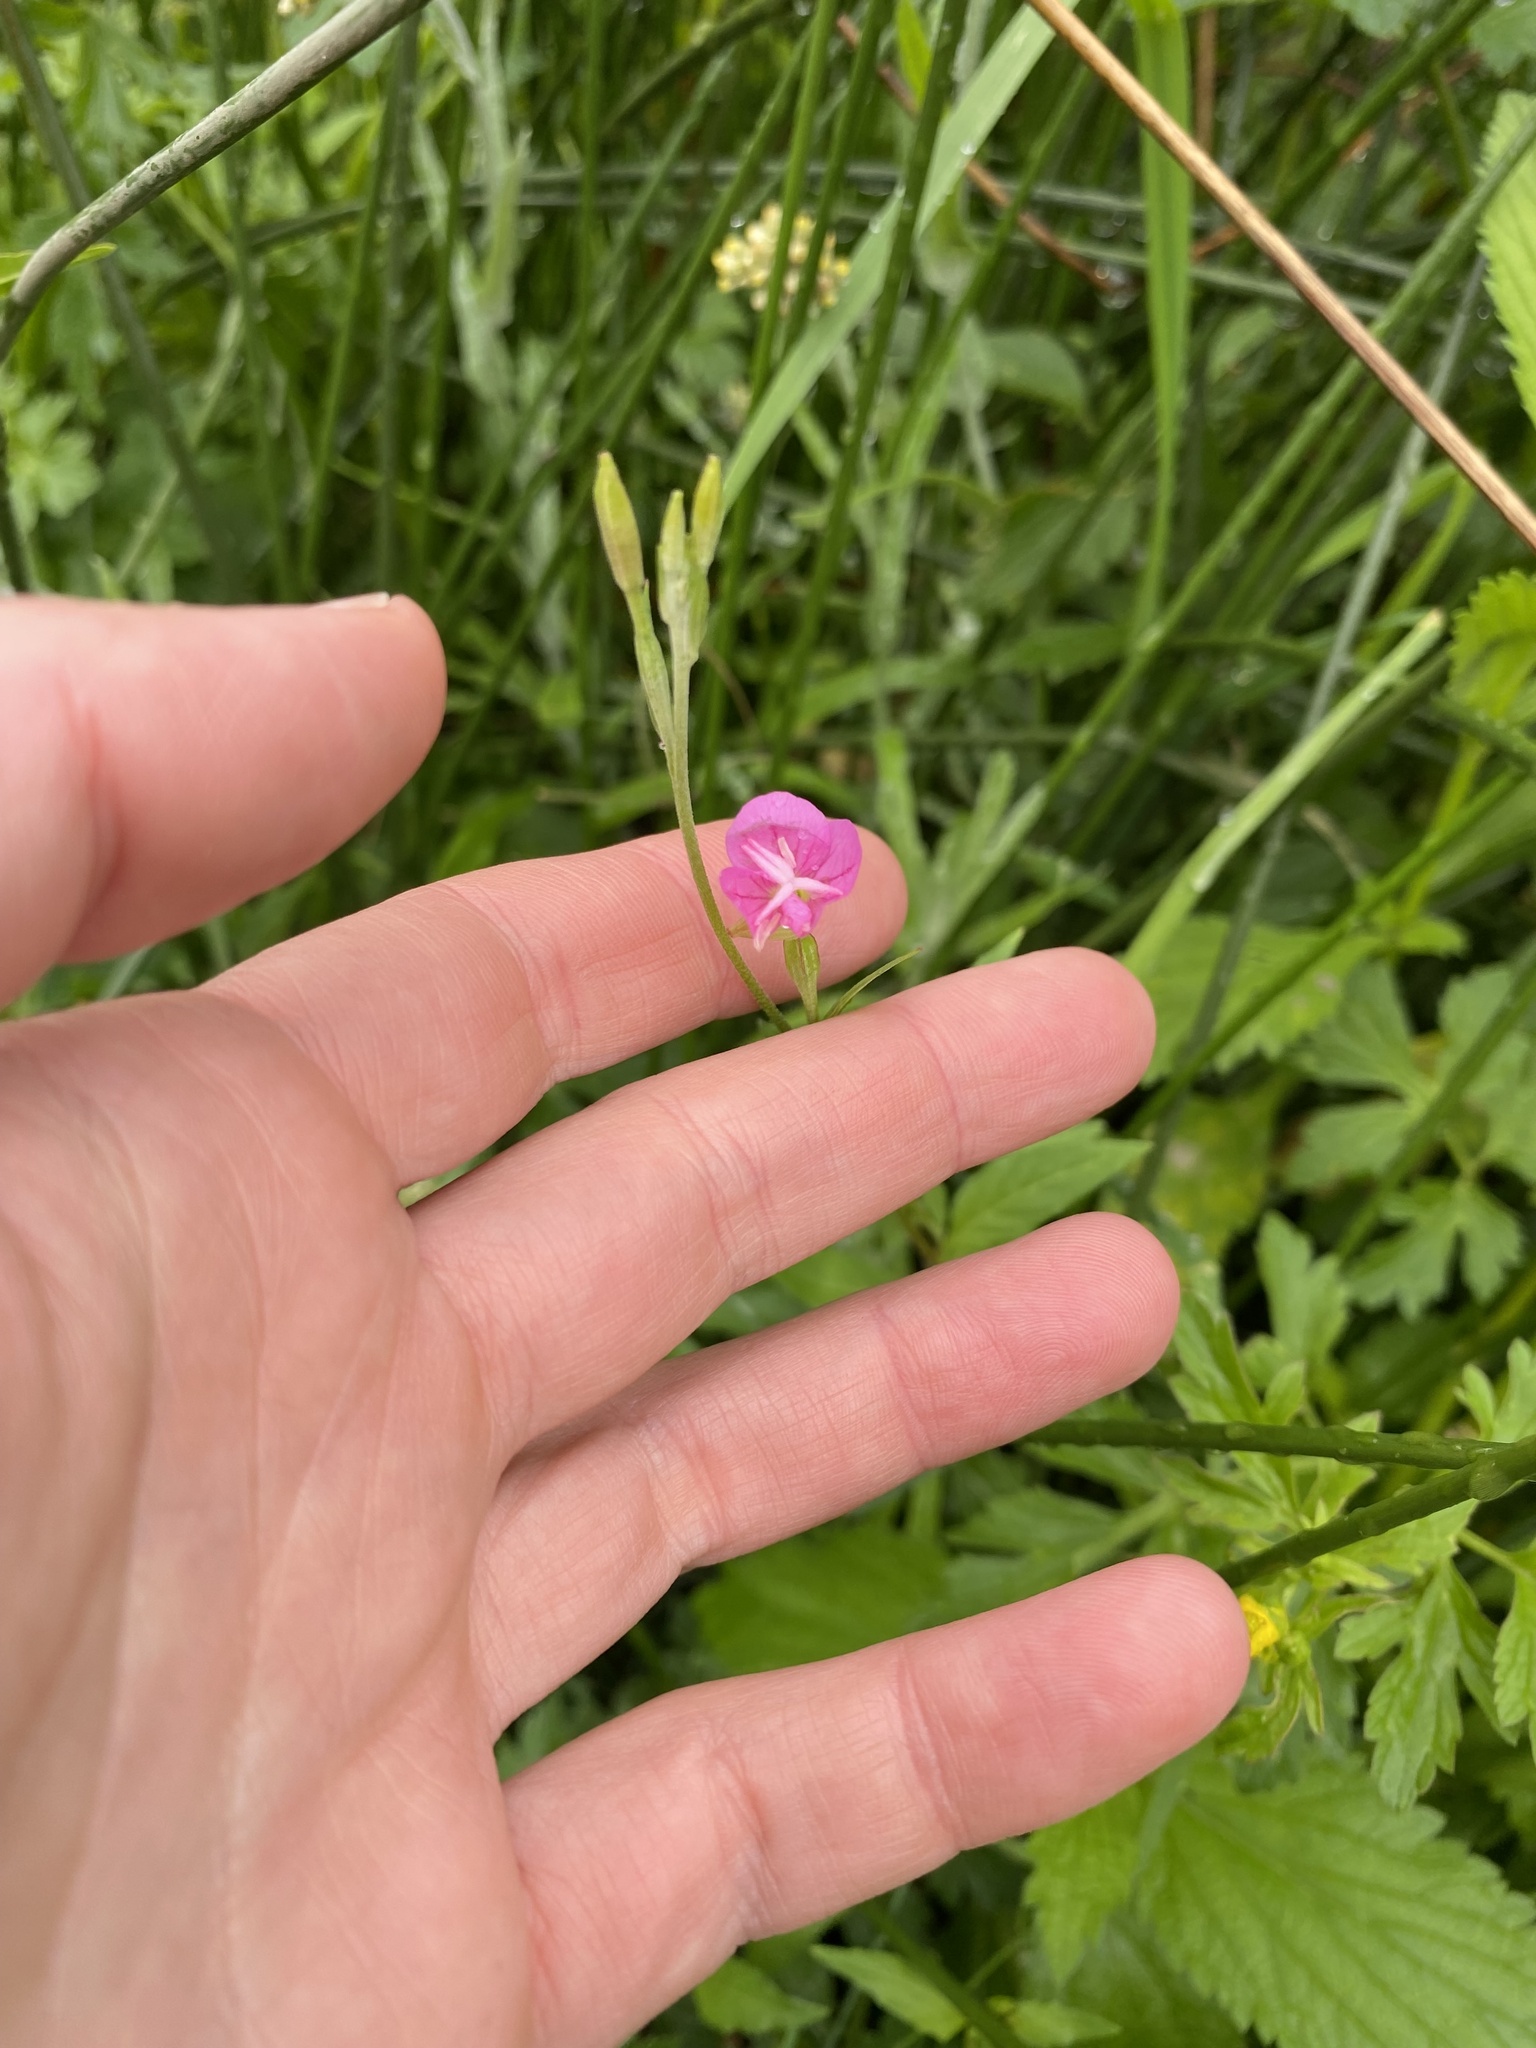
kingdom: Plantae
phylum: Tracheophyta
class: Magnoliopsida
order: Myrtales
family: Onagraceae
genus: Oenothera
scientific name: Oenothera rosea
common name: Rosy evening-primrose
